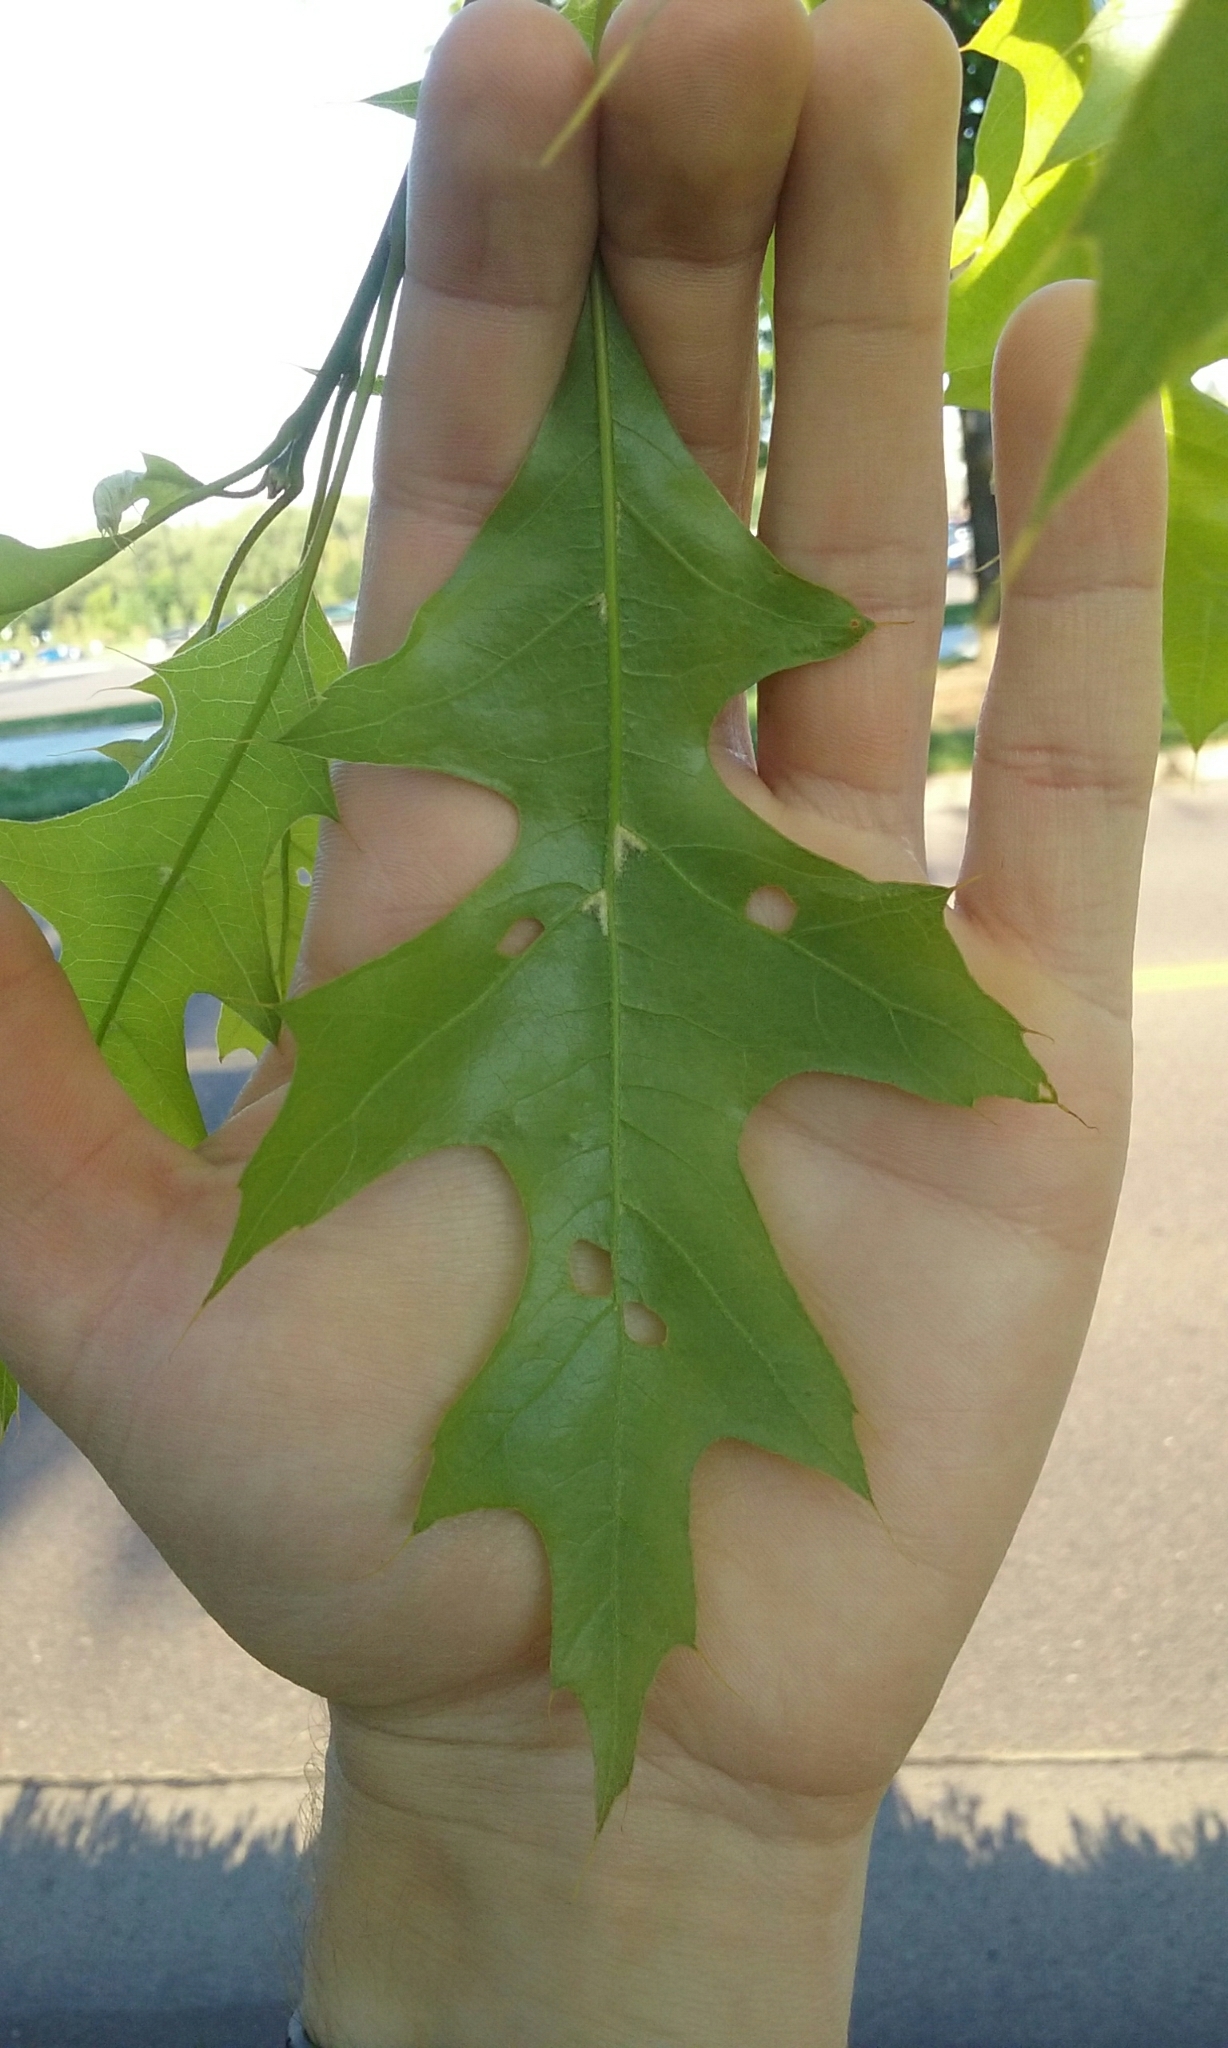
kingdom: Plantae
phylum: Tracheophyta
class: Magnoliopsida
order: Fagales
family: Fagaceae
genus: Quercus
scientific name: Quercus rubra
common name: Red oak
